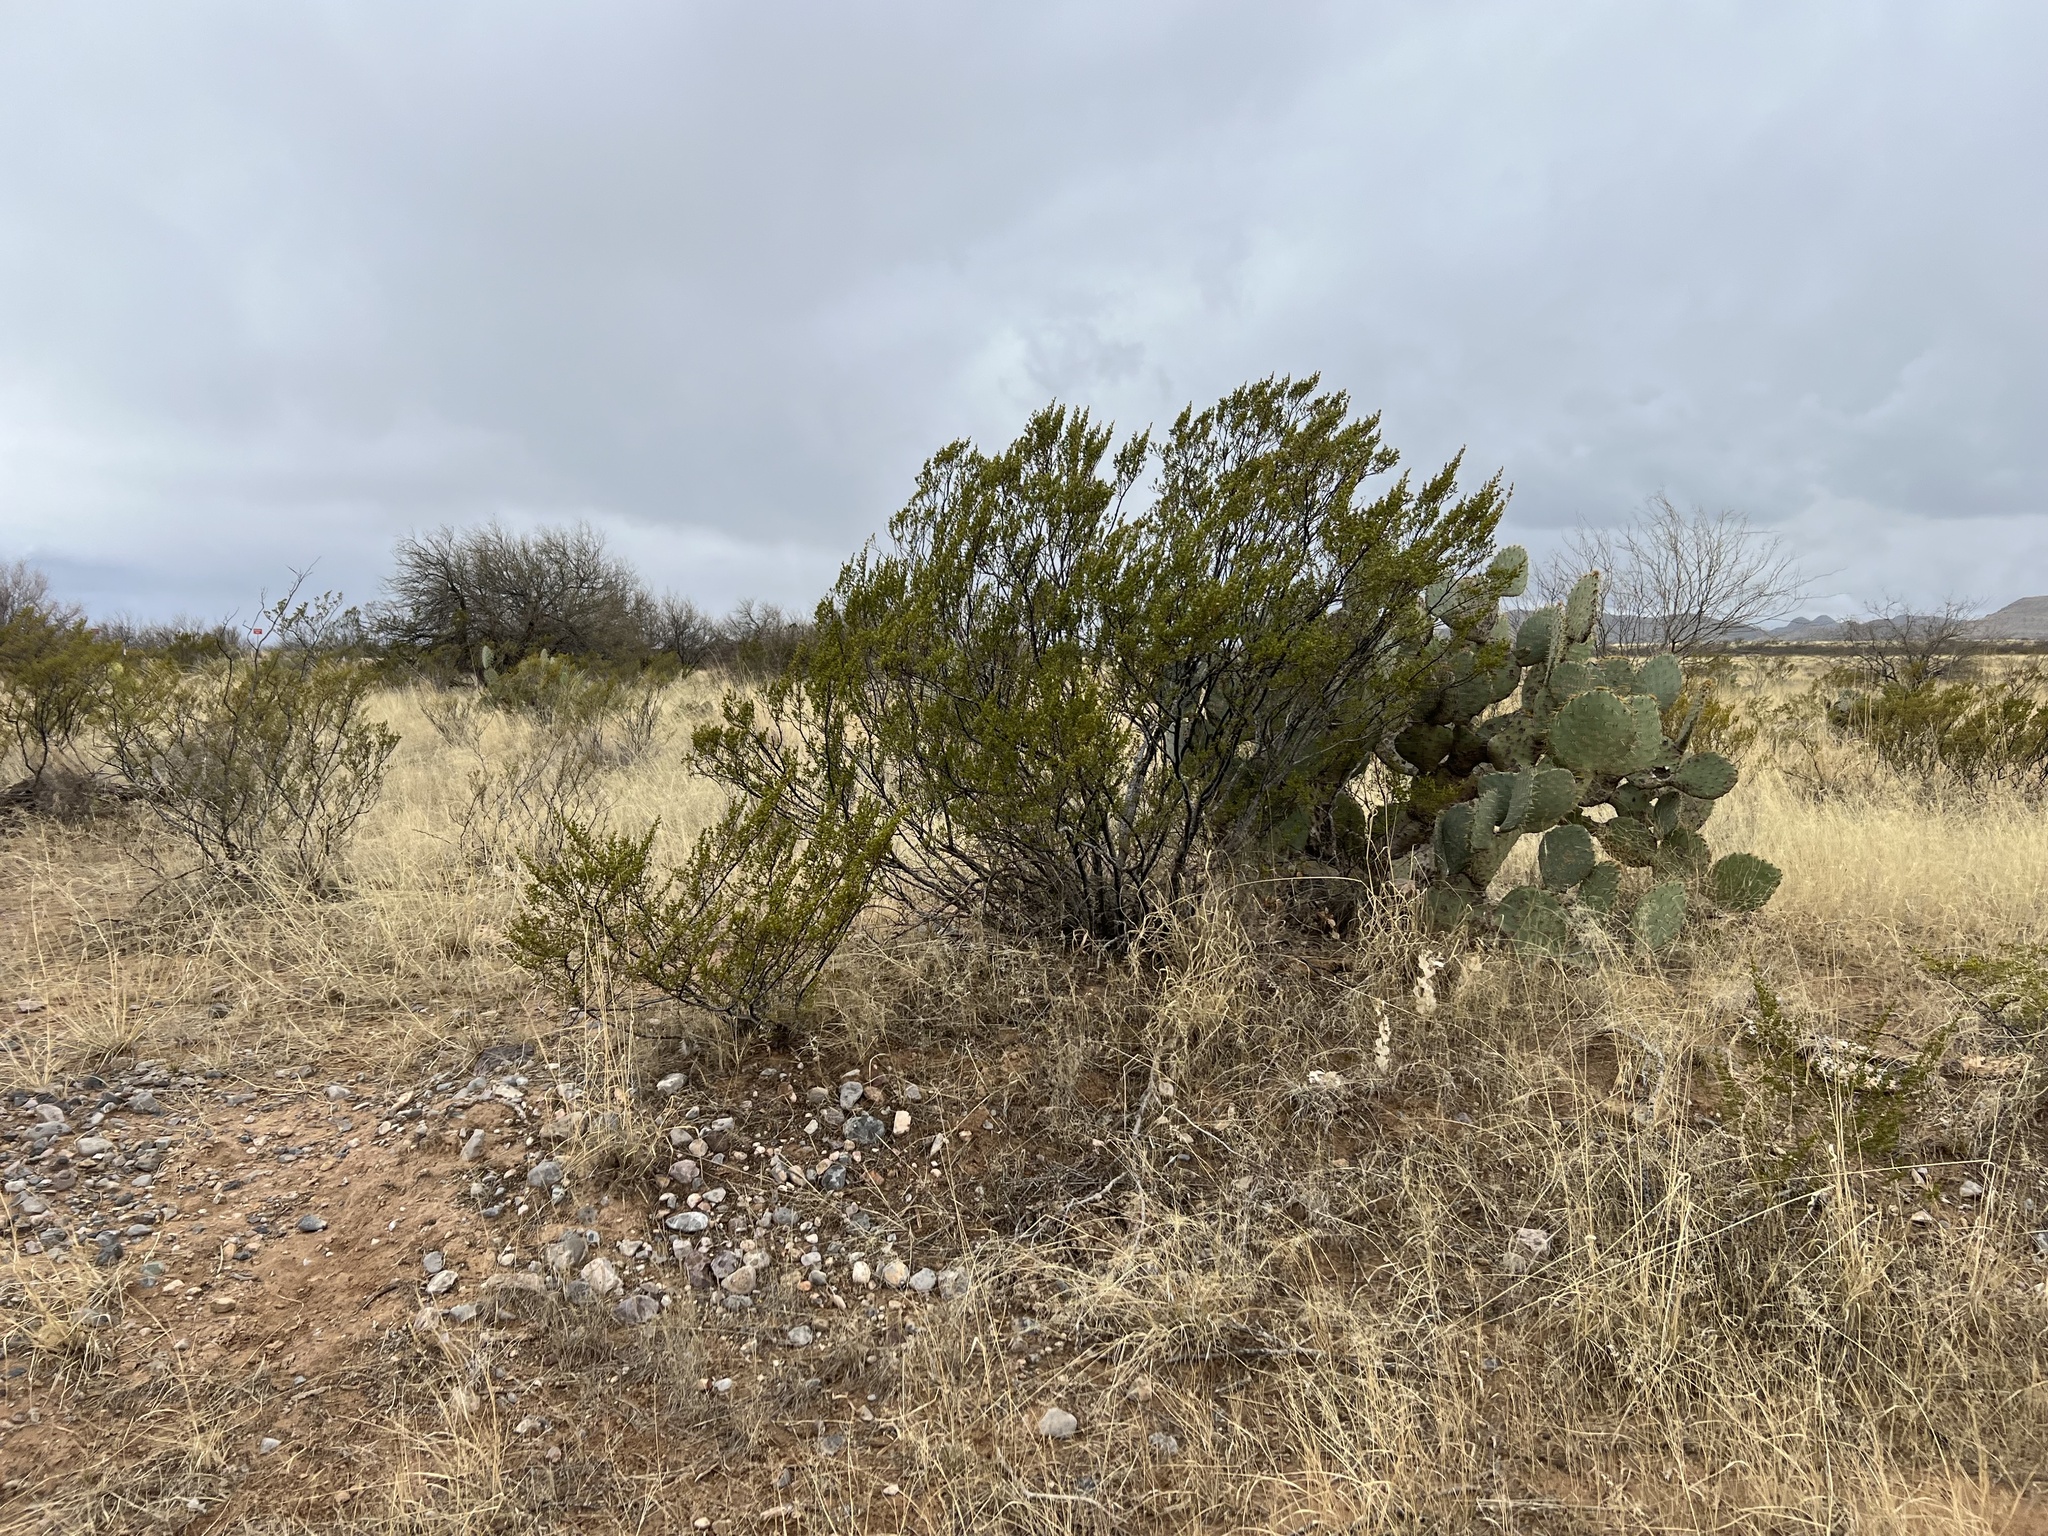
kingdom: Plantae
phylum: Tracheophyta
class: Magnoliopsida
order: Zygophyllales
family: Zygophyllaceae
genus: Larrea
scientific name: Larrea tridentata
